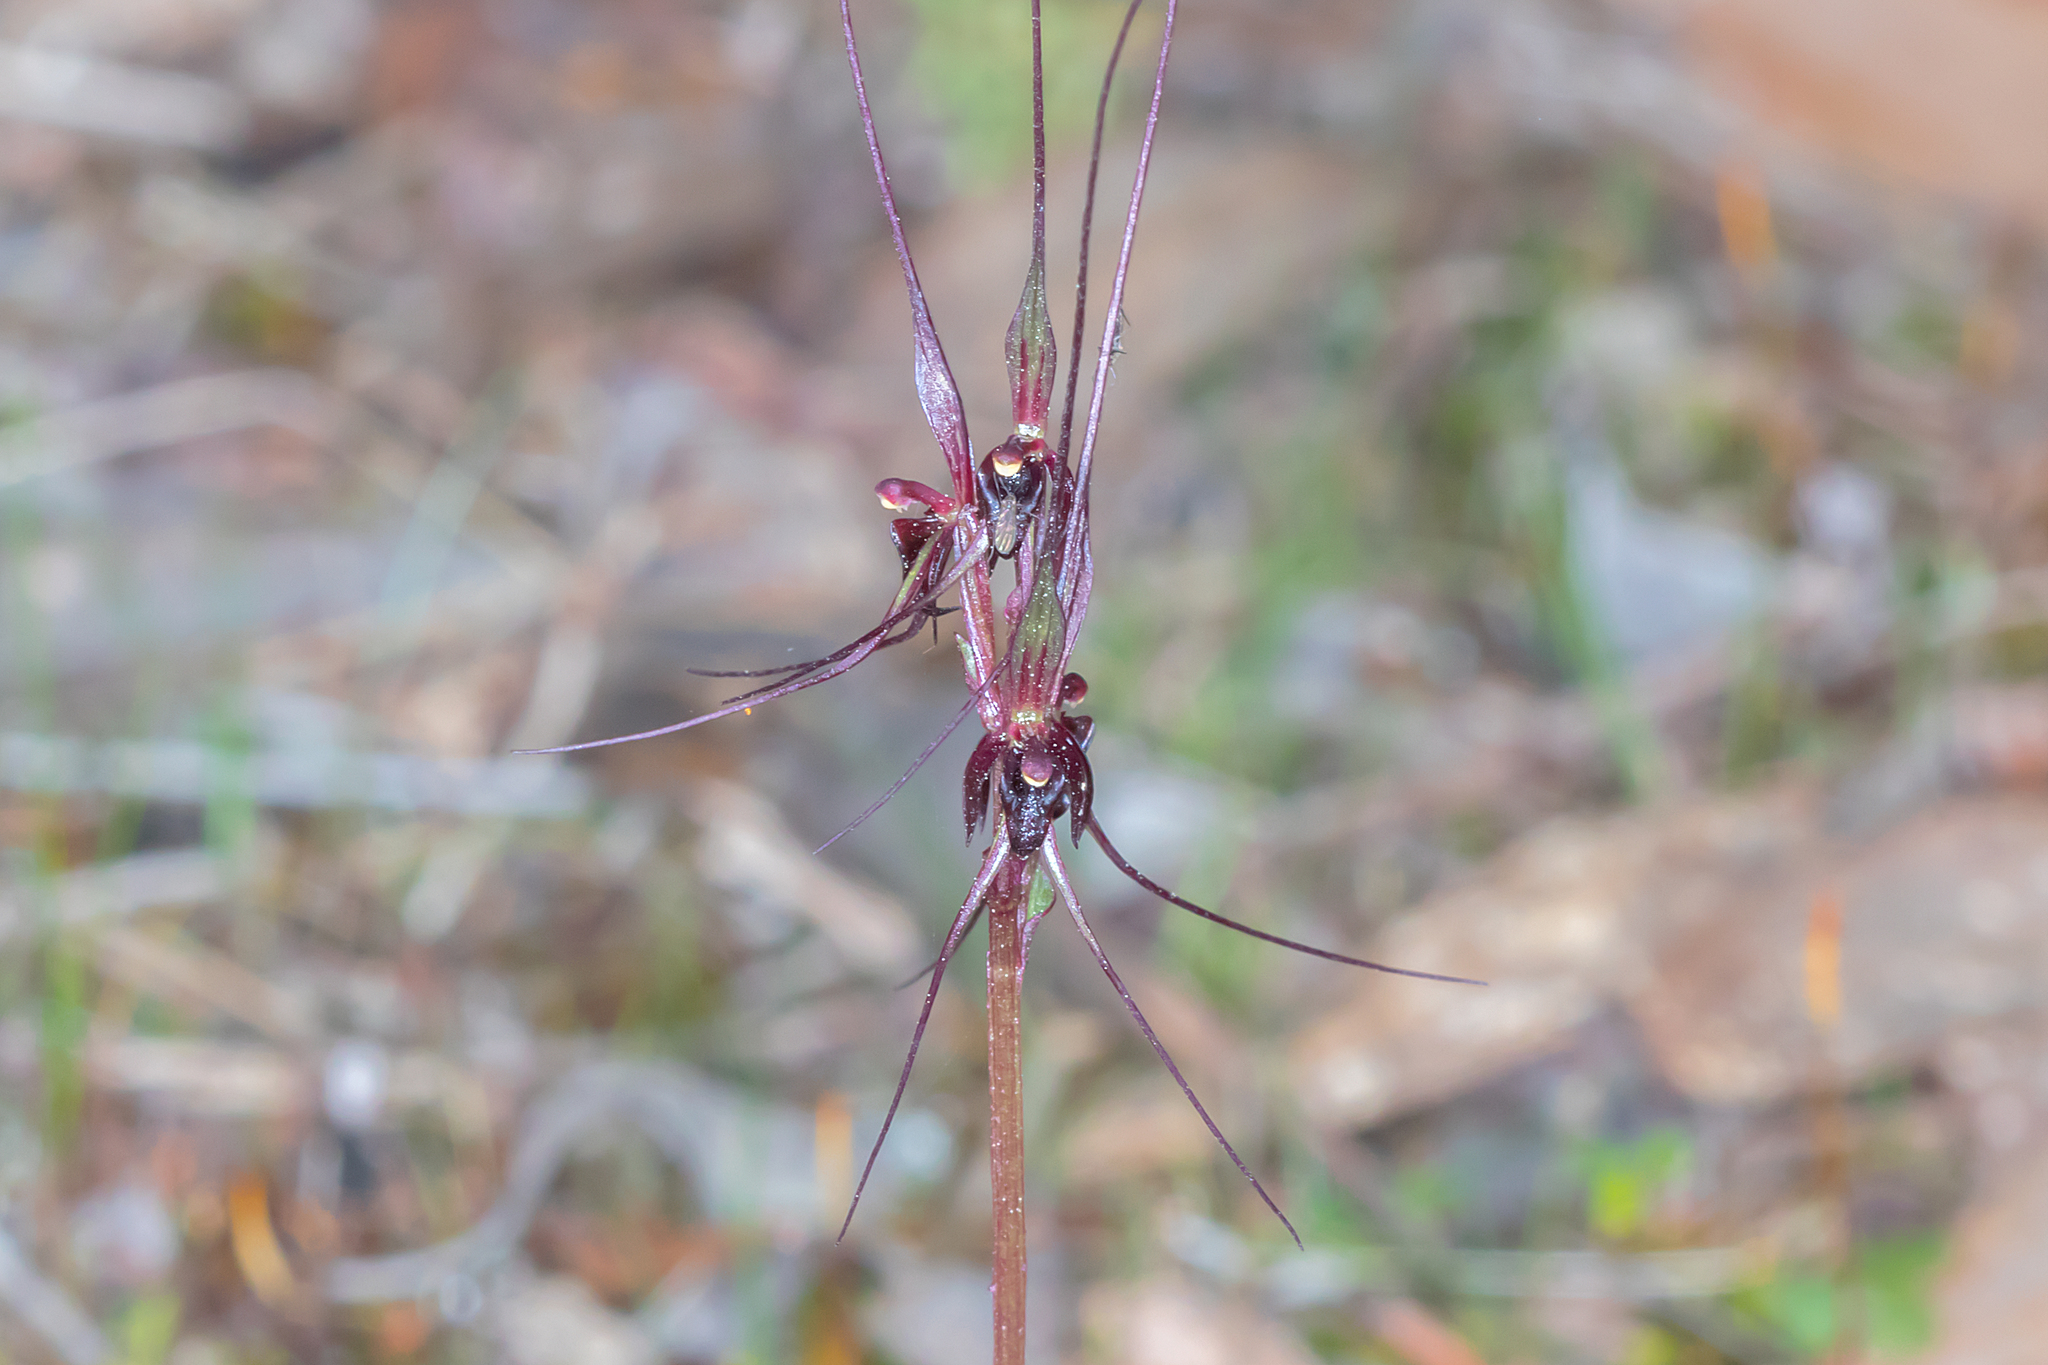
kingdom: Plantae
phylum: Tracheophyta
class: Liliopsida
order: Asparagales
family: Orchidaceae
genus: Acianthus
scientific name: Acianthus caudatus
